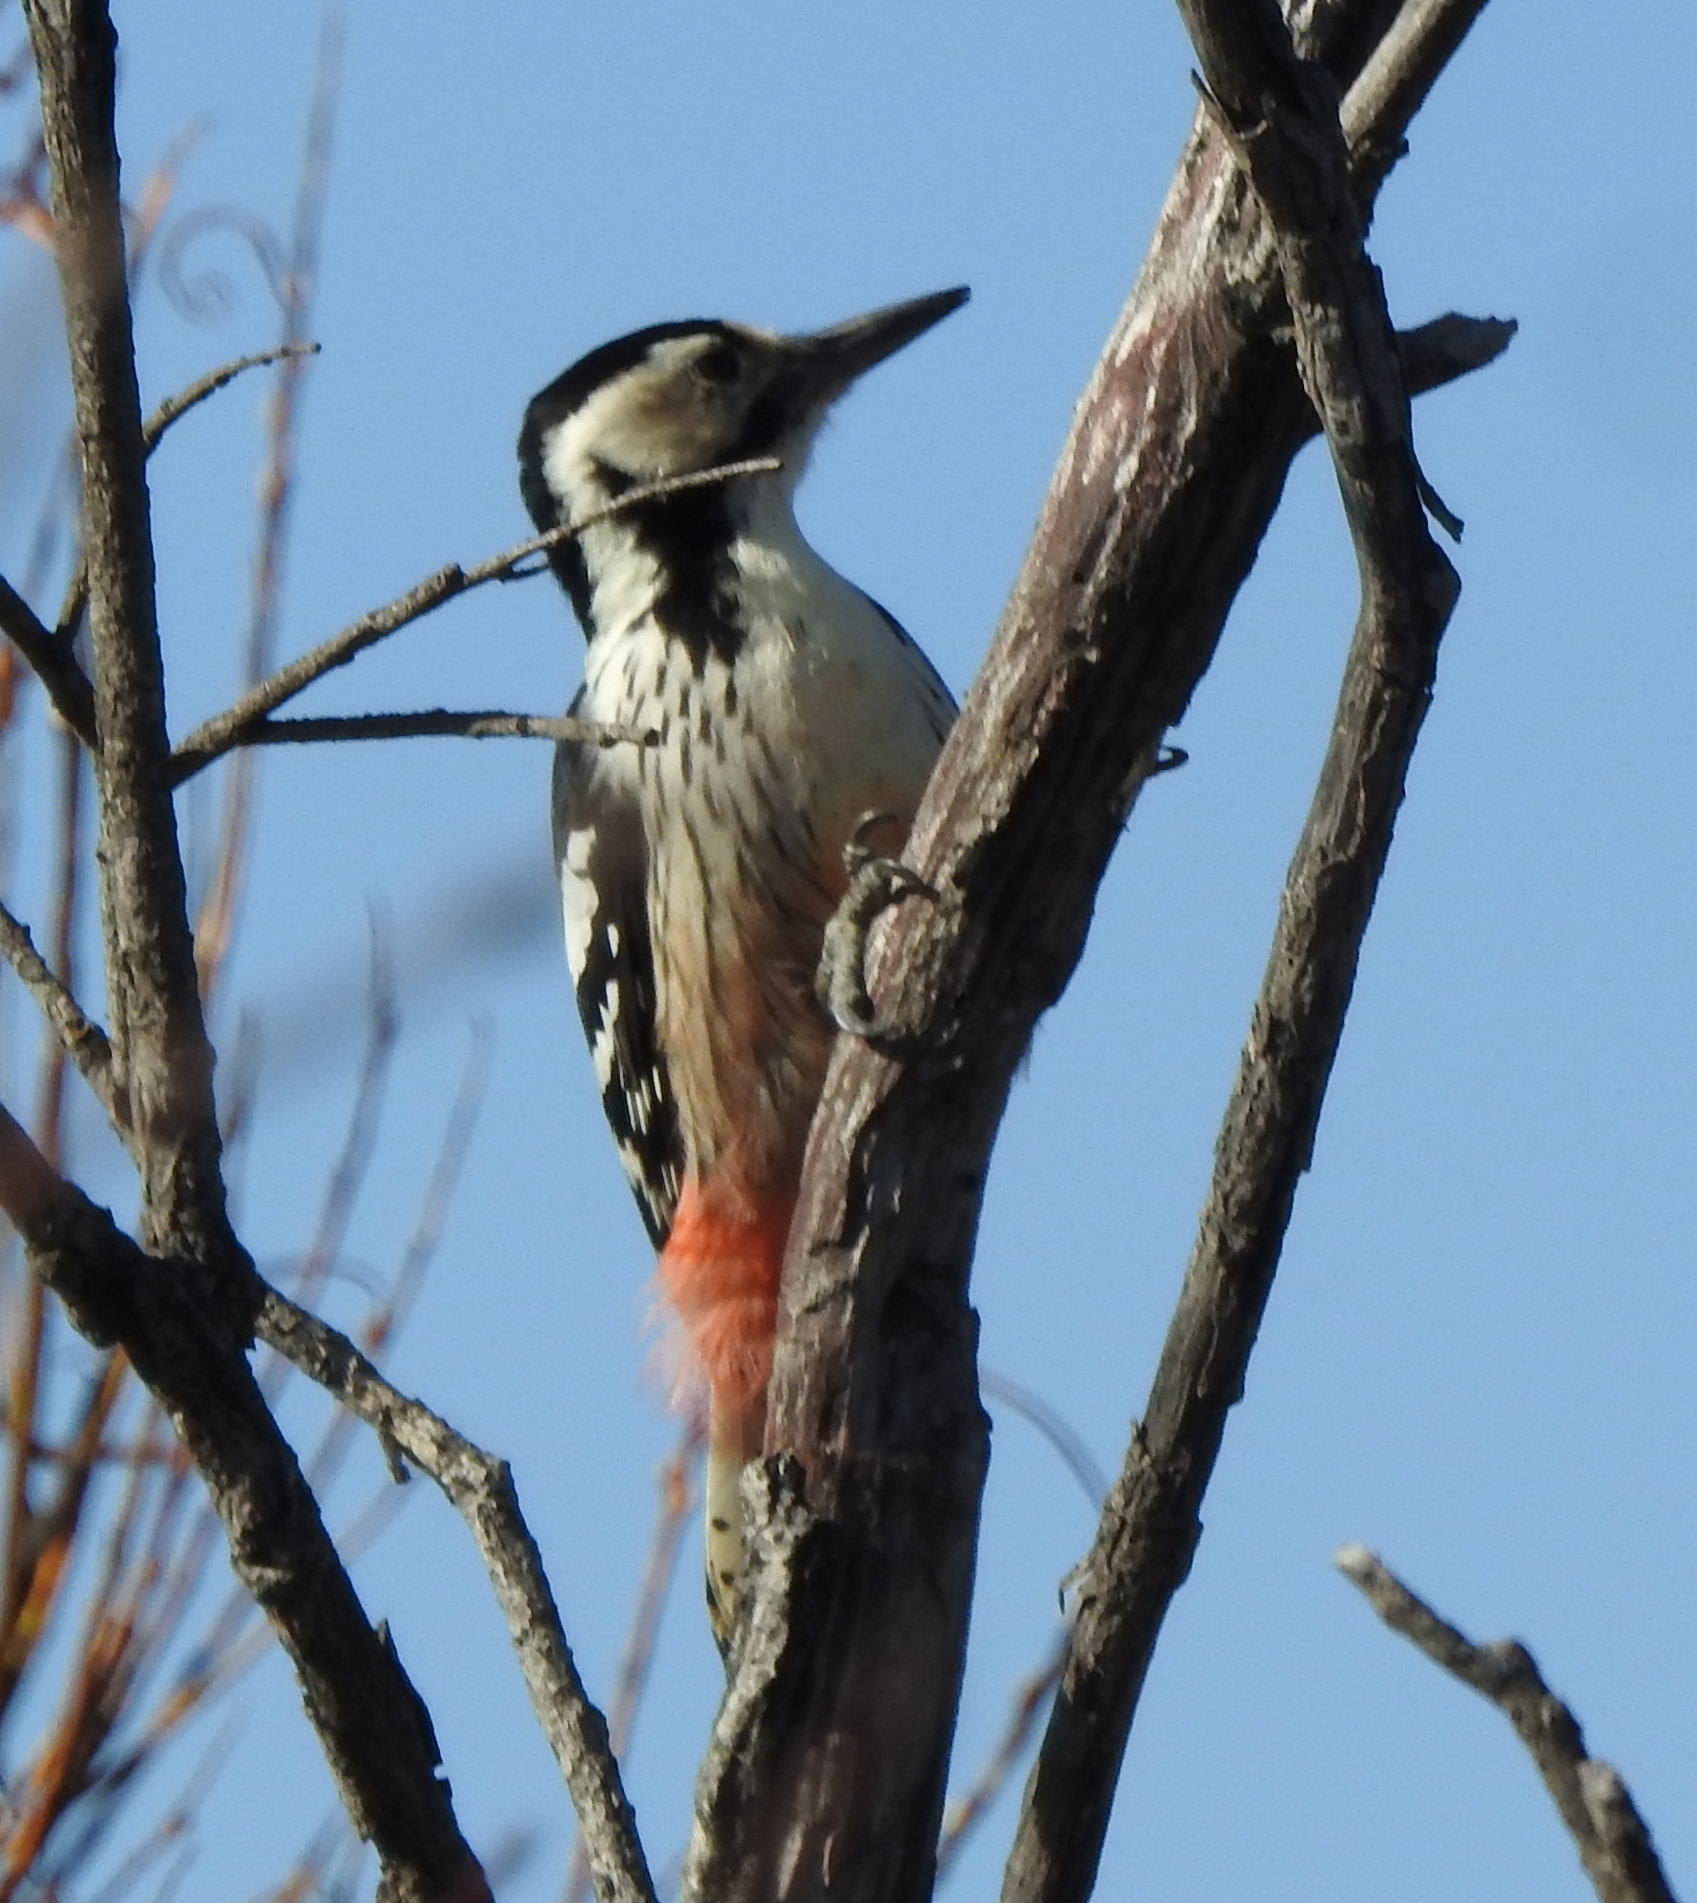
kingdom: Animalia
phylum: Chordata
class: Aves
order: Piciformes
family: Picidae
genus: Dendrocopos
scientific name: Dendrocopos leucotos
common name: White-backed woodpecker
